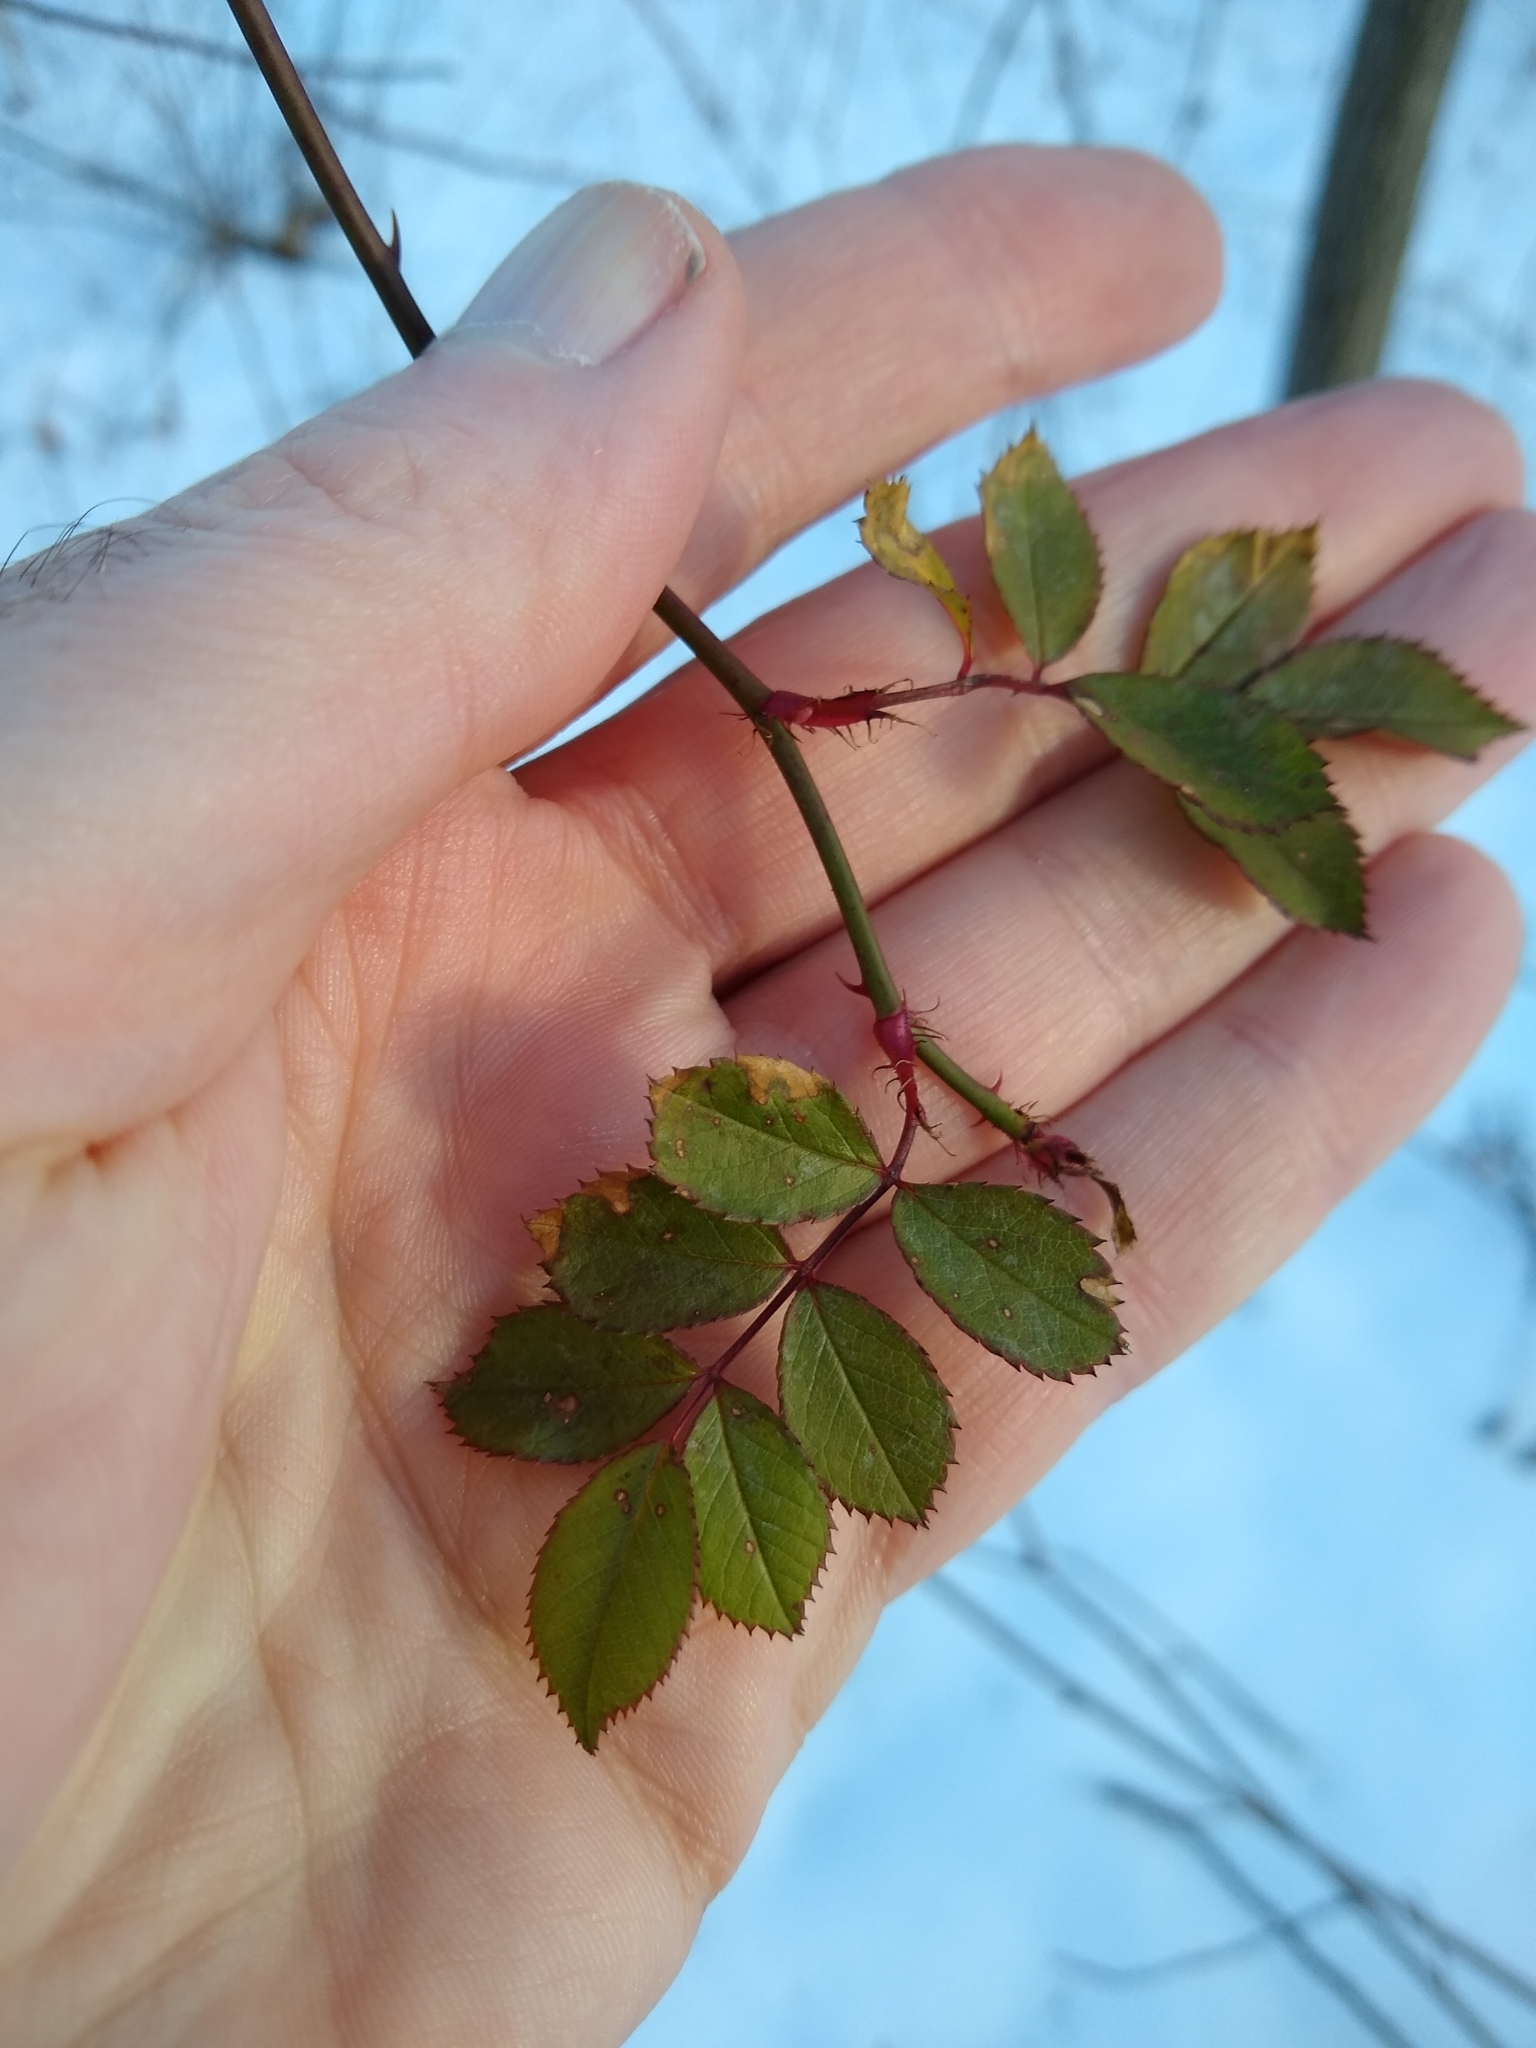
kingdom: Plantae
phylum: Tracheophyta
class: Magnoliopsida
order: Rosales
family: Rosaceae
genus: Rosa
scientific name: Rosa multiflora
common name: Multiflora rose
